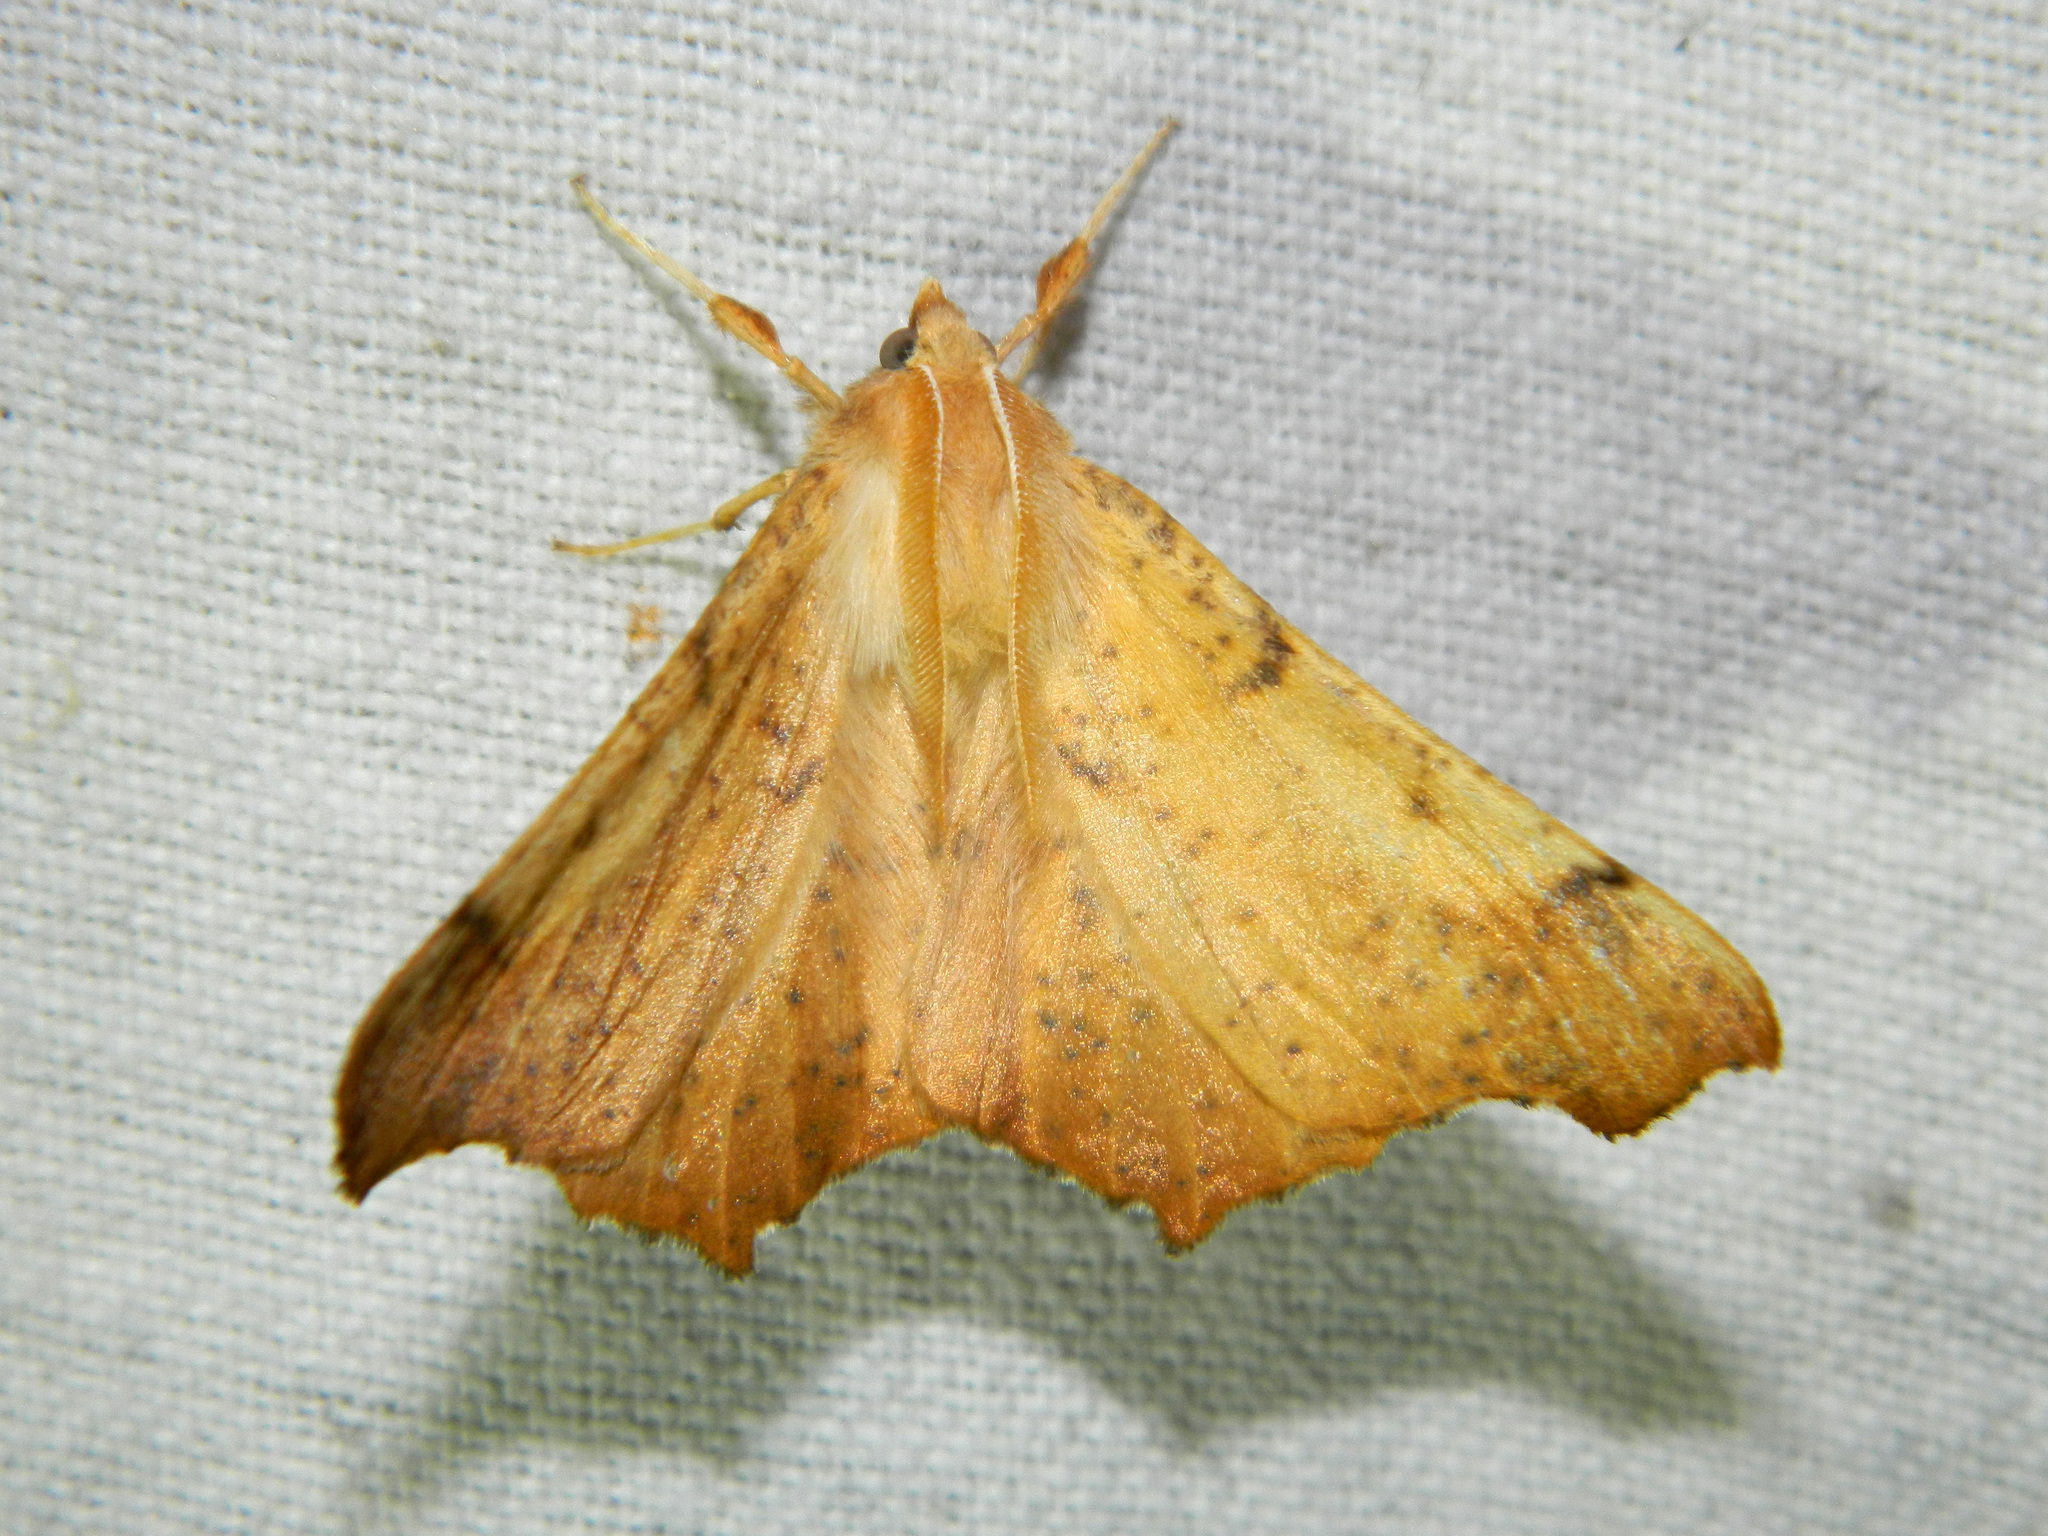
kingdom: Animalia
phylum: Arthropoda
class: Insecta
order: Lepidoptera
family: Geometridae
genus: Ennomos
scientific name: Ennomos magnaria
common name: Maple spanworm
